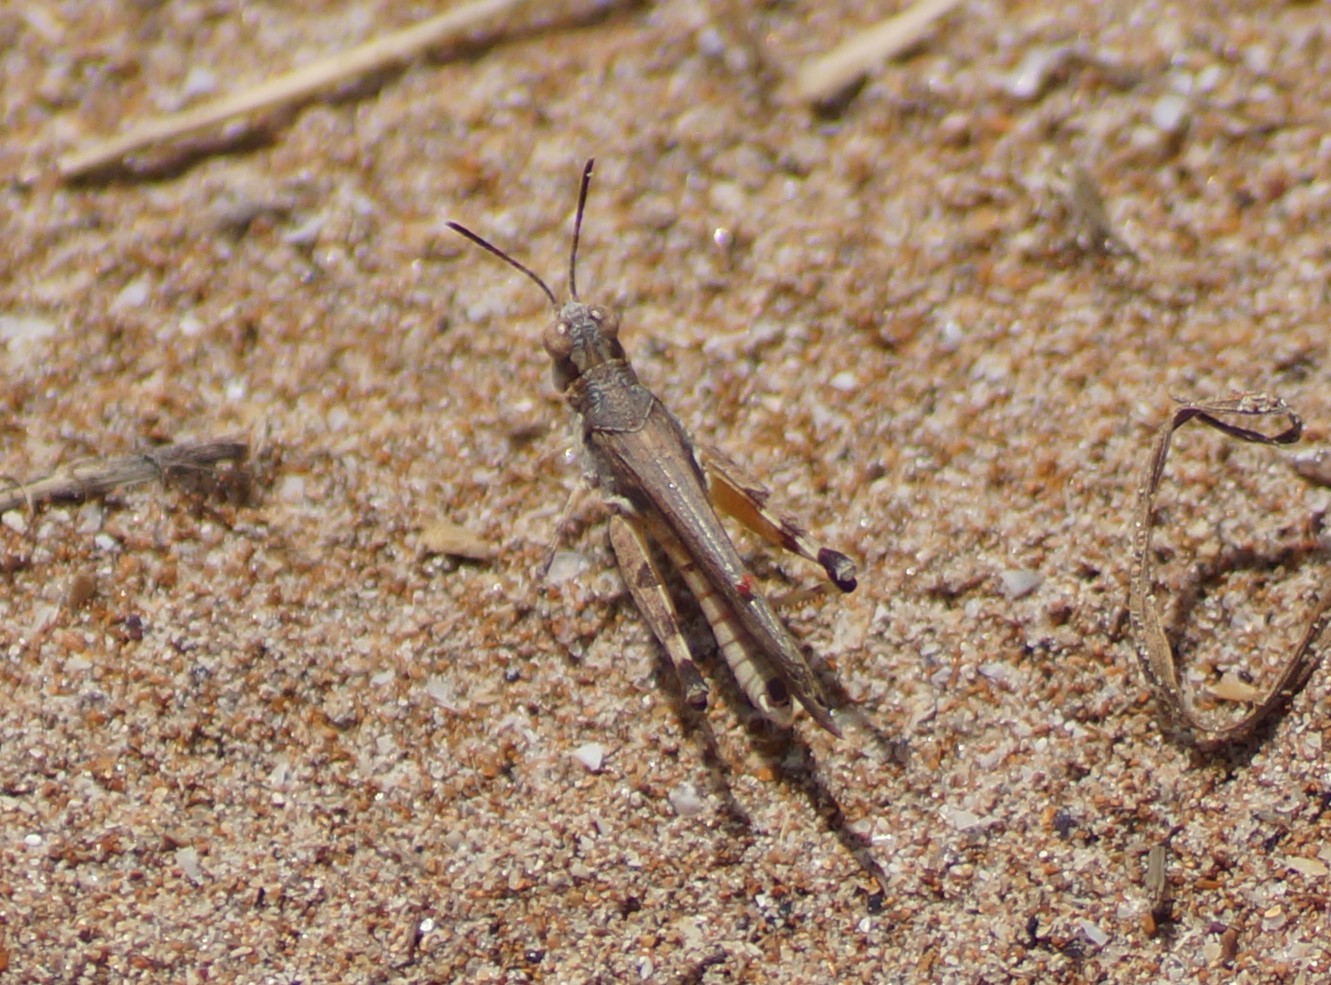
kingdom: Animalia
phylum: Arthropoda
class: Insecta
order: Orthoptera
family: Acrididae
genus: Pycnostictus
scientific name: Pycnostictus seriatus
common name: Common bandwing
